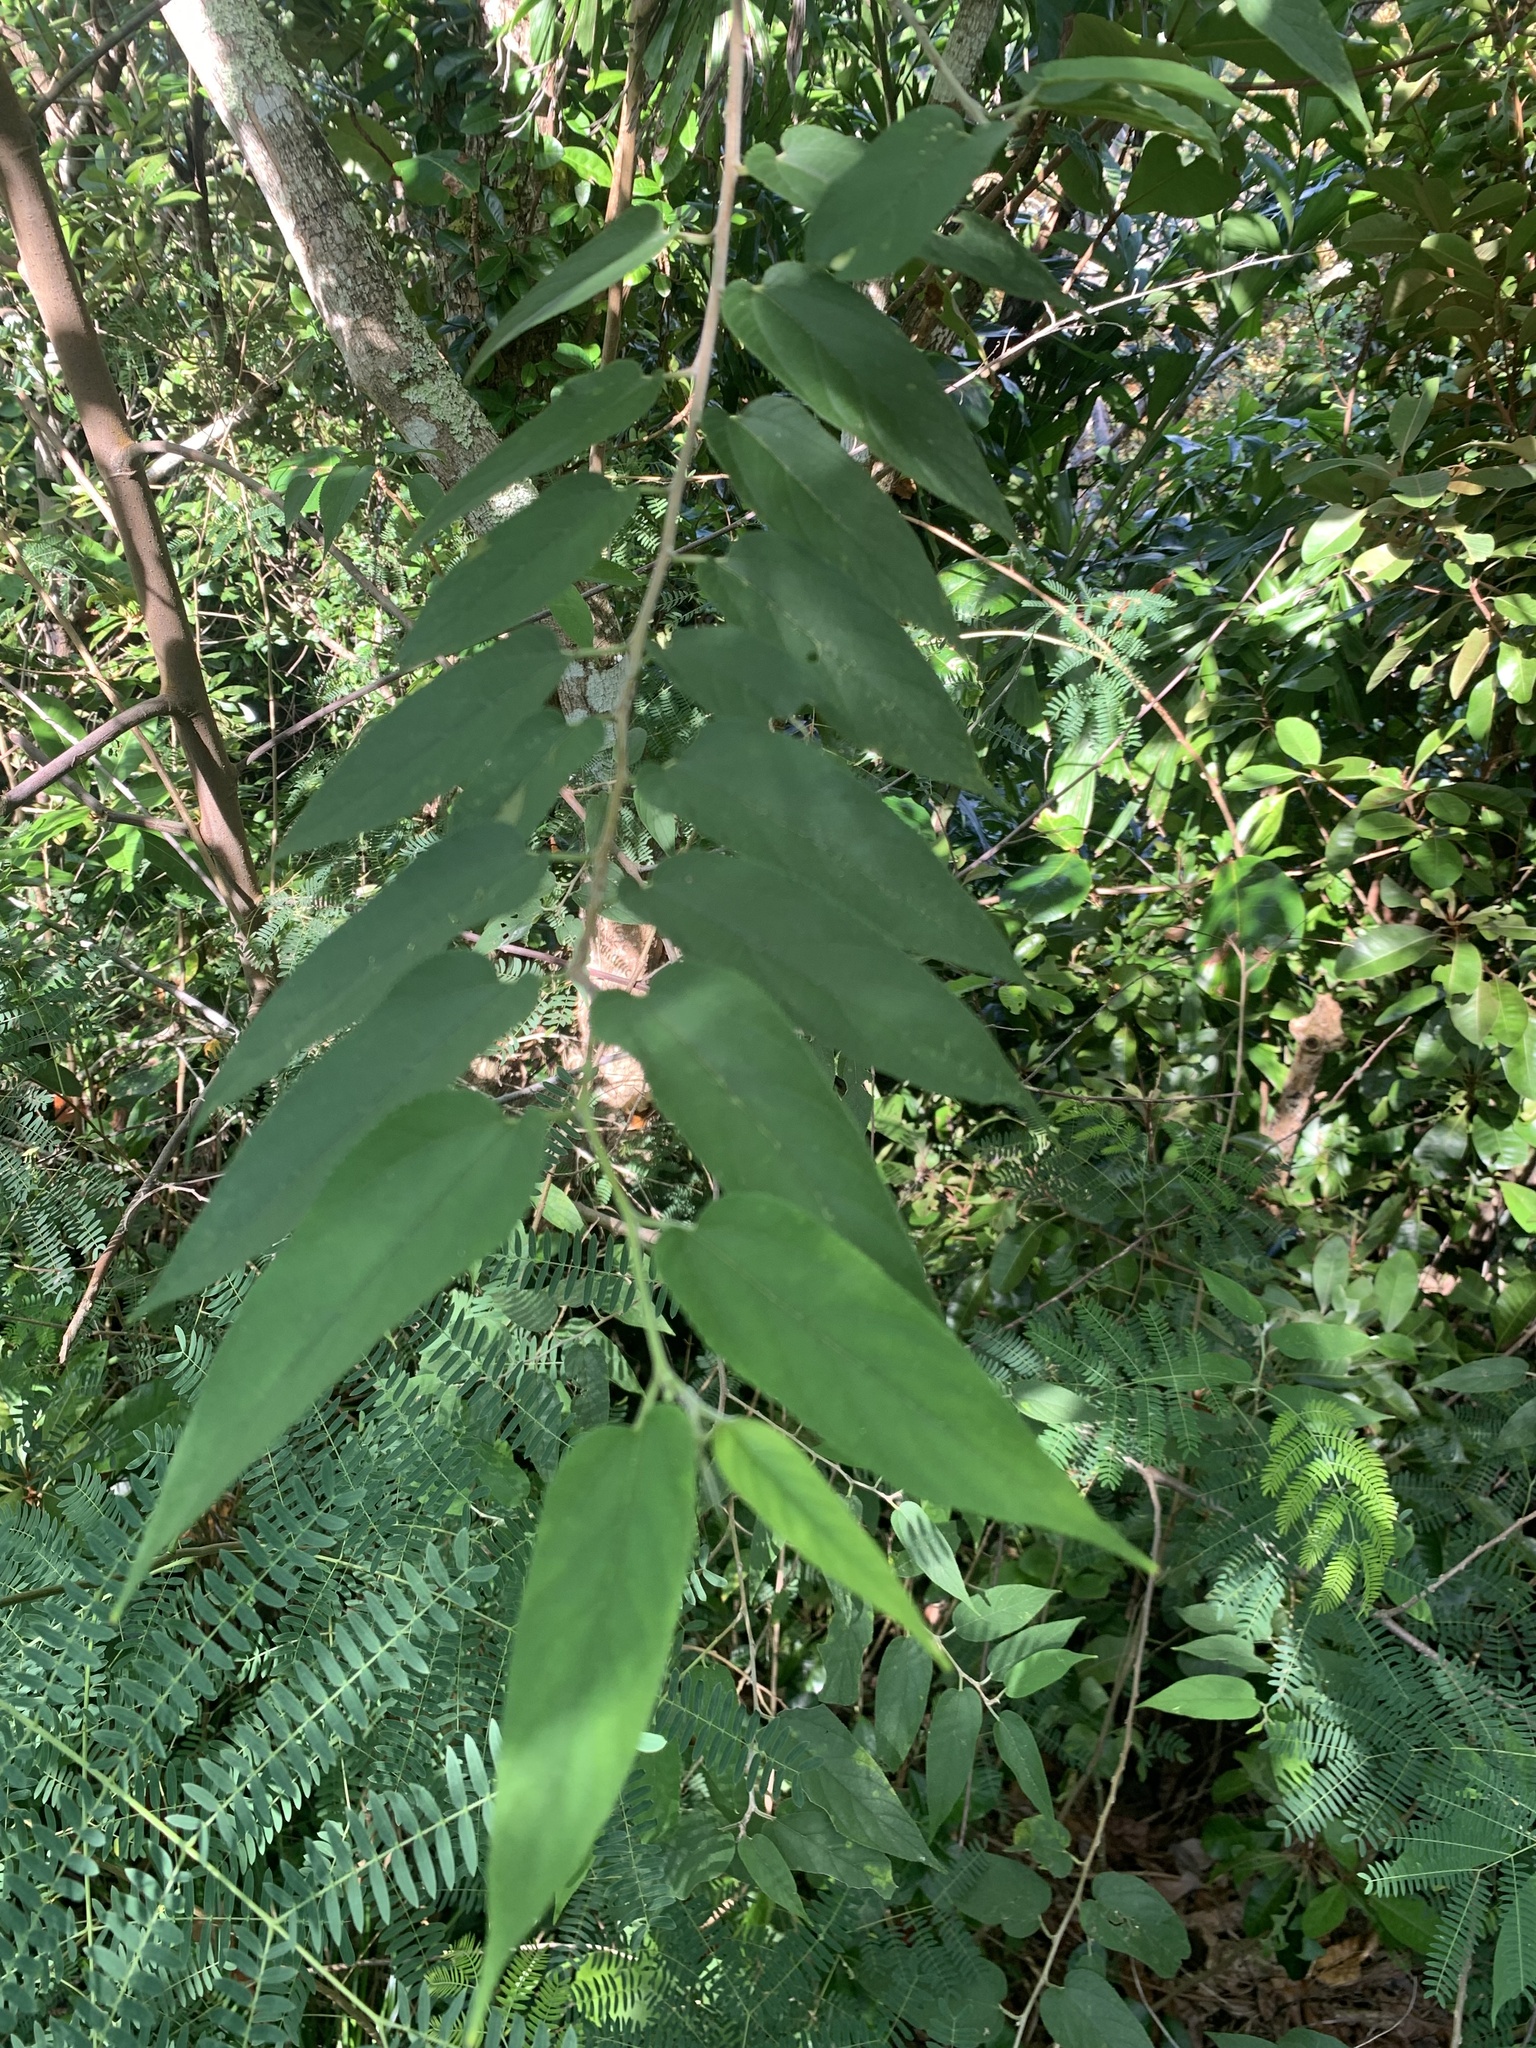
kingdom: Plantae
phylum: Tracheophyta
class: Magnoliopsida
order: Rosales
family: Cannabaceae
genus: Trema
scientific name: Trema orientale
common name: Indian charcoal tree
